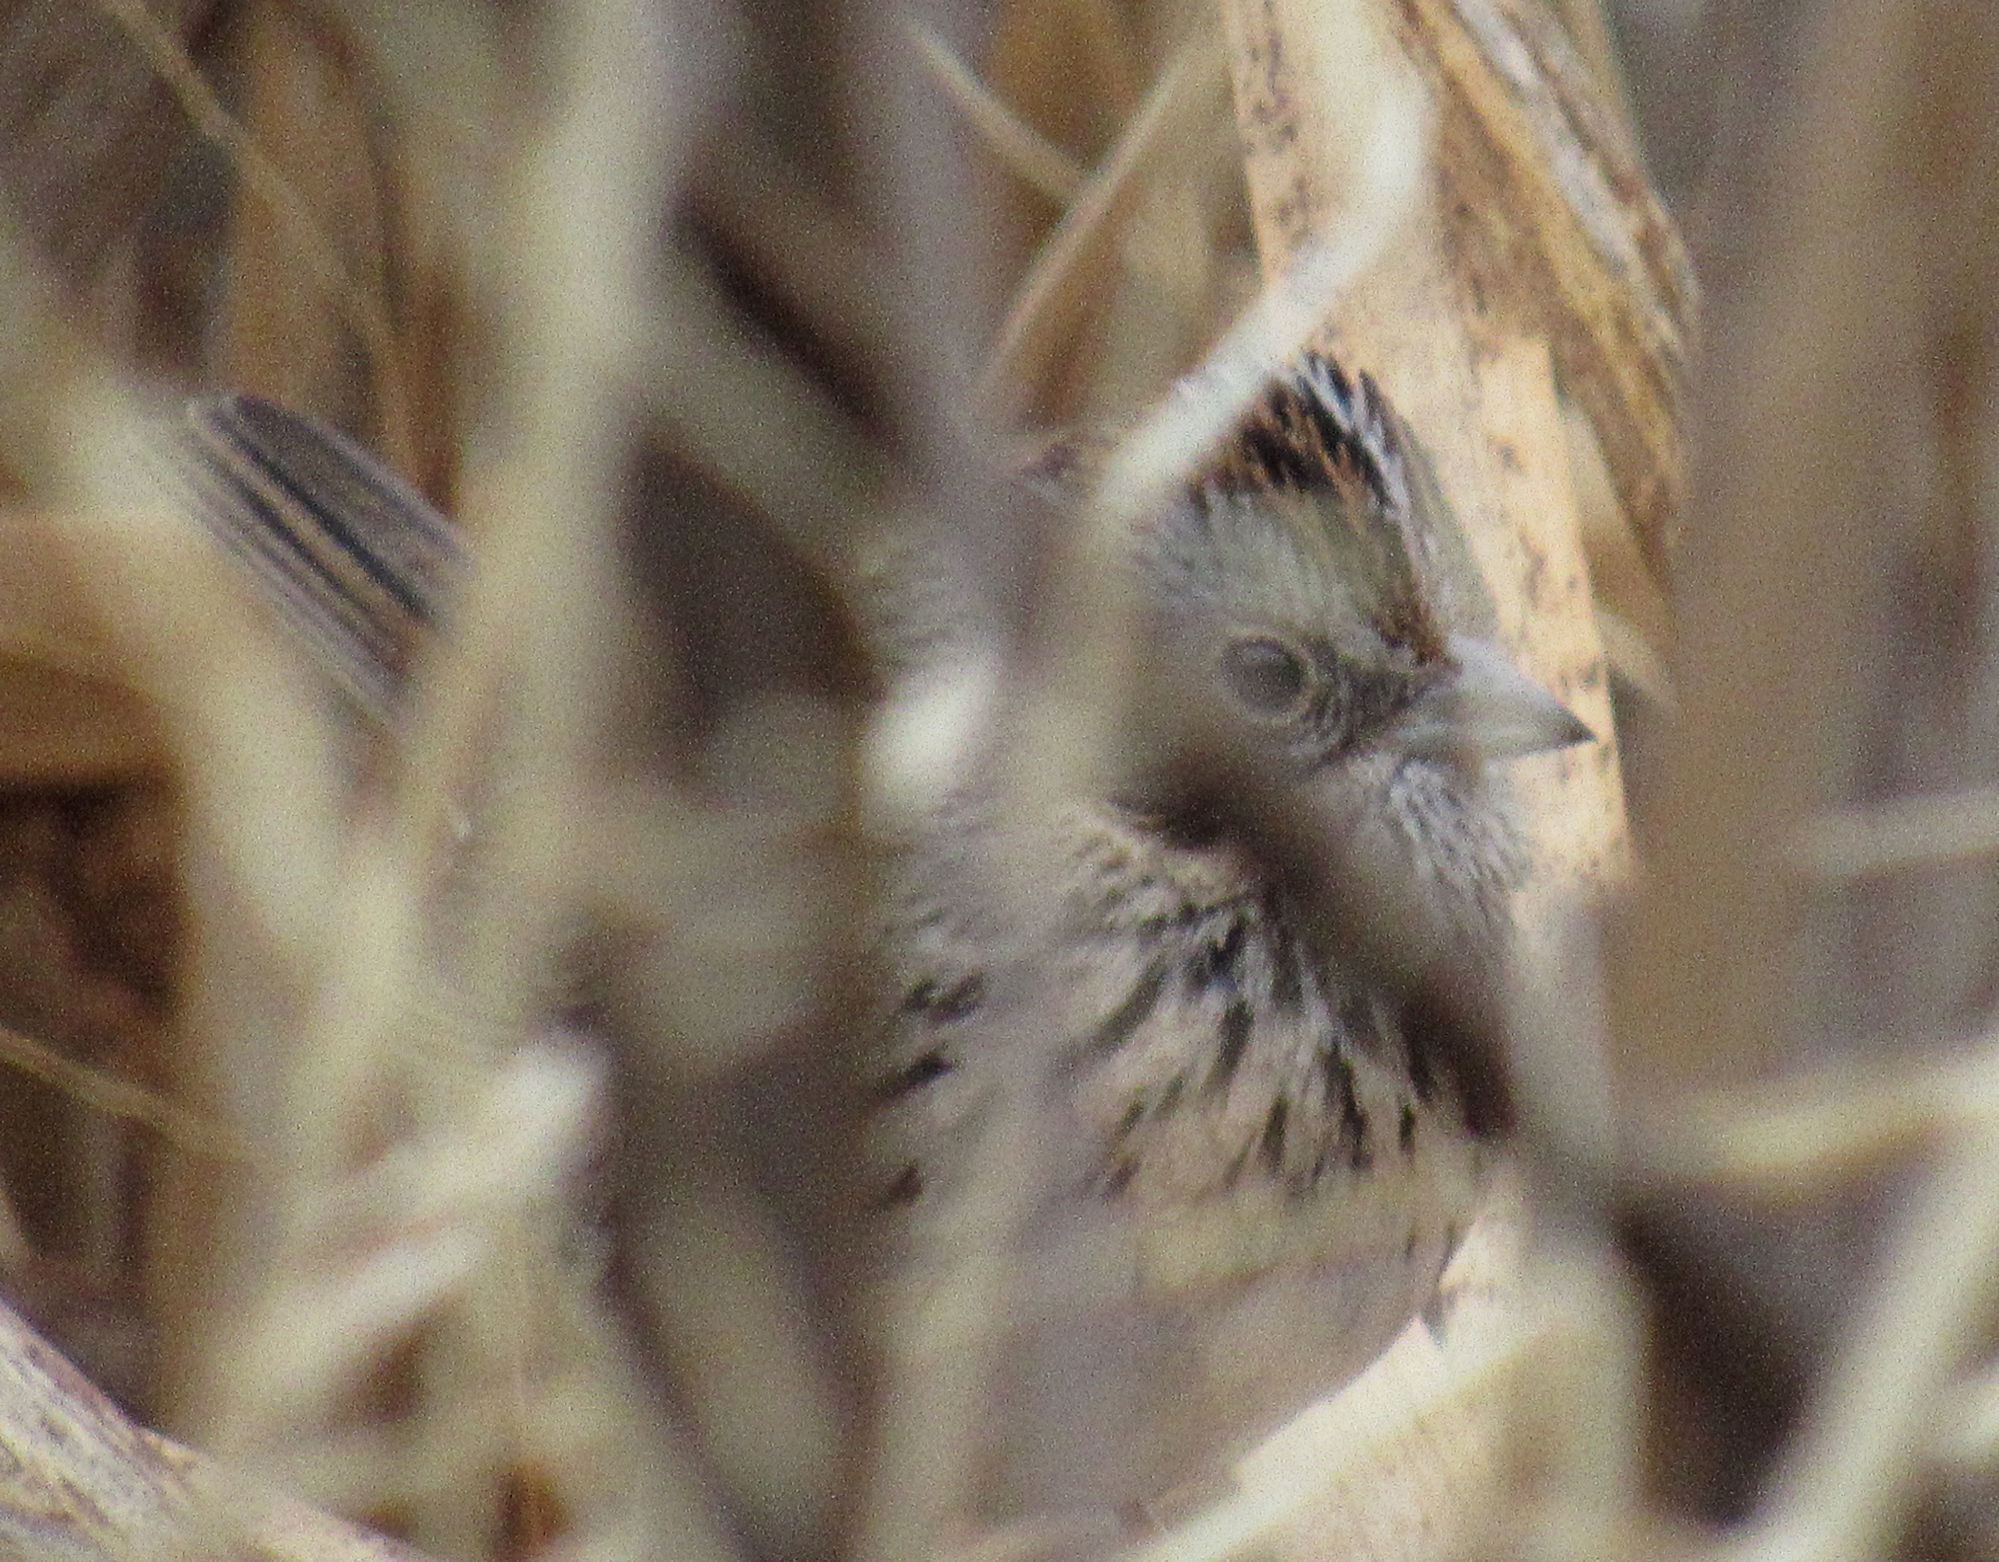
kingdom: Animalia
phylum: Chordata
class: Aves
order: Passeriformes
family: Passerellidae
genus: Melospiza
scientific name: Melospiza lincolnii
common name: Lincoln's sparrow
